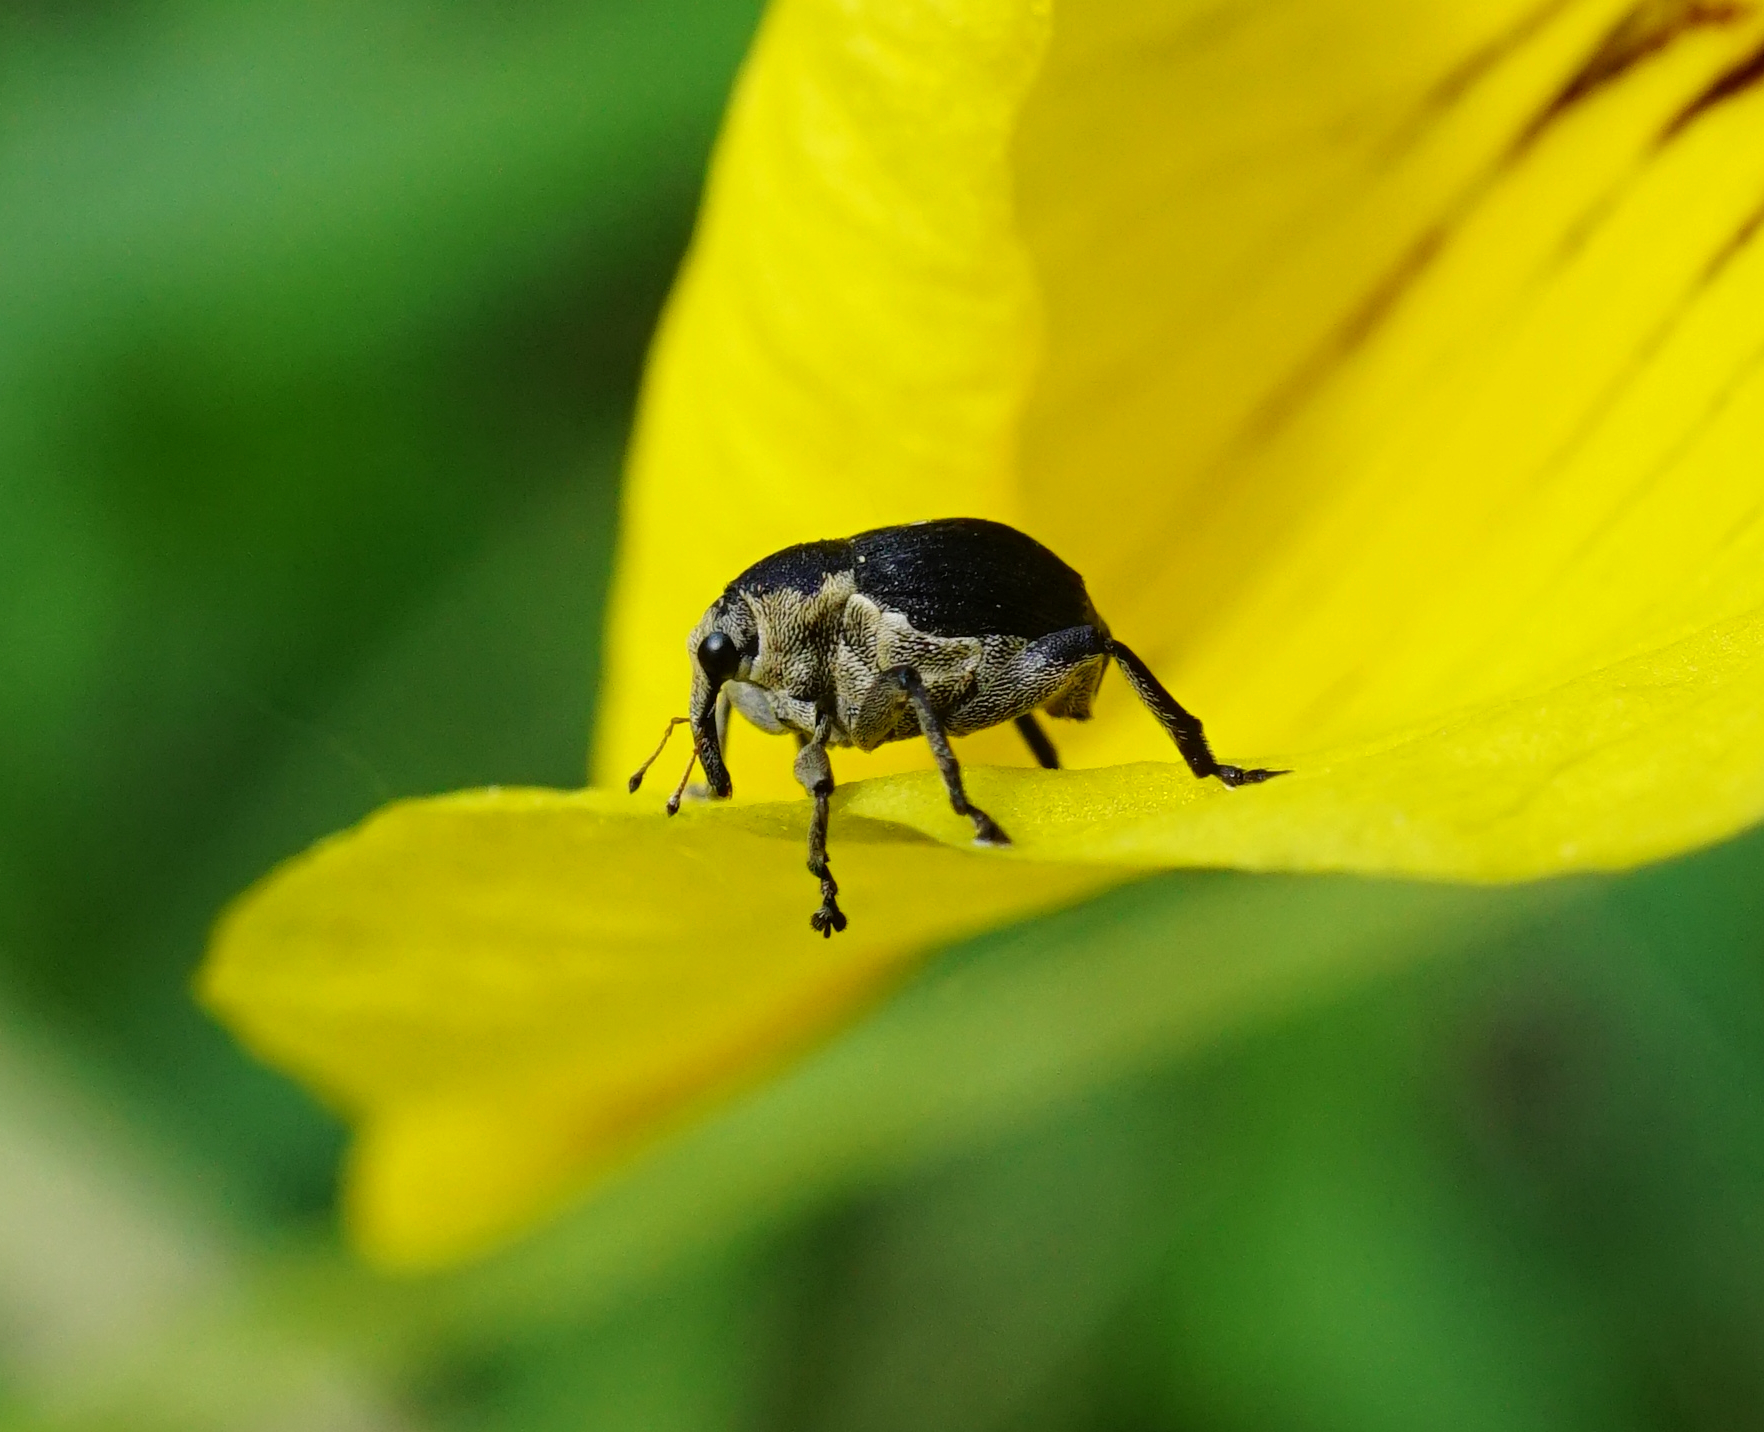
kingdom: Animalia
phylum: Arthropoda
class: Insecta
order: Coleoptera
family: Curculionidae
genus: Mononychus
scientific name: Mononychus punctumalbum
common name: Iris weevil
